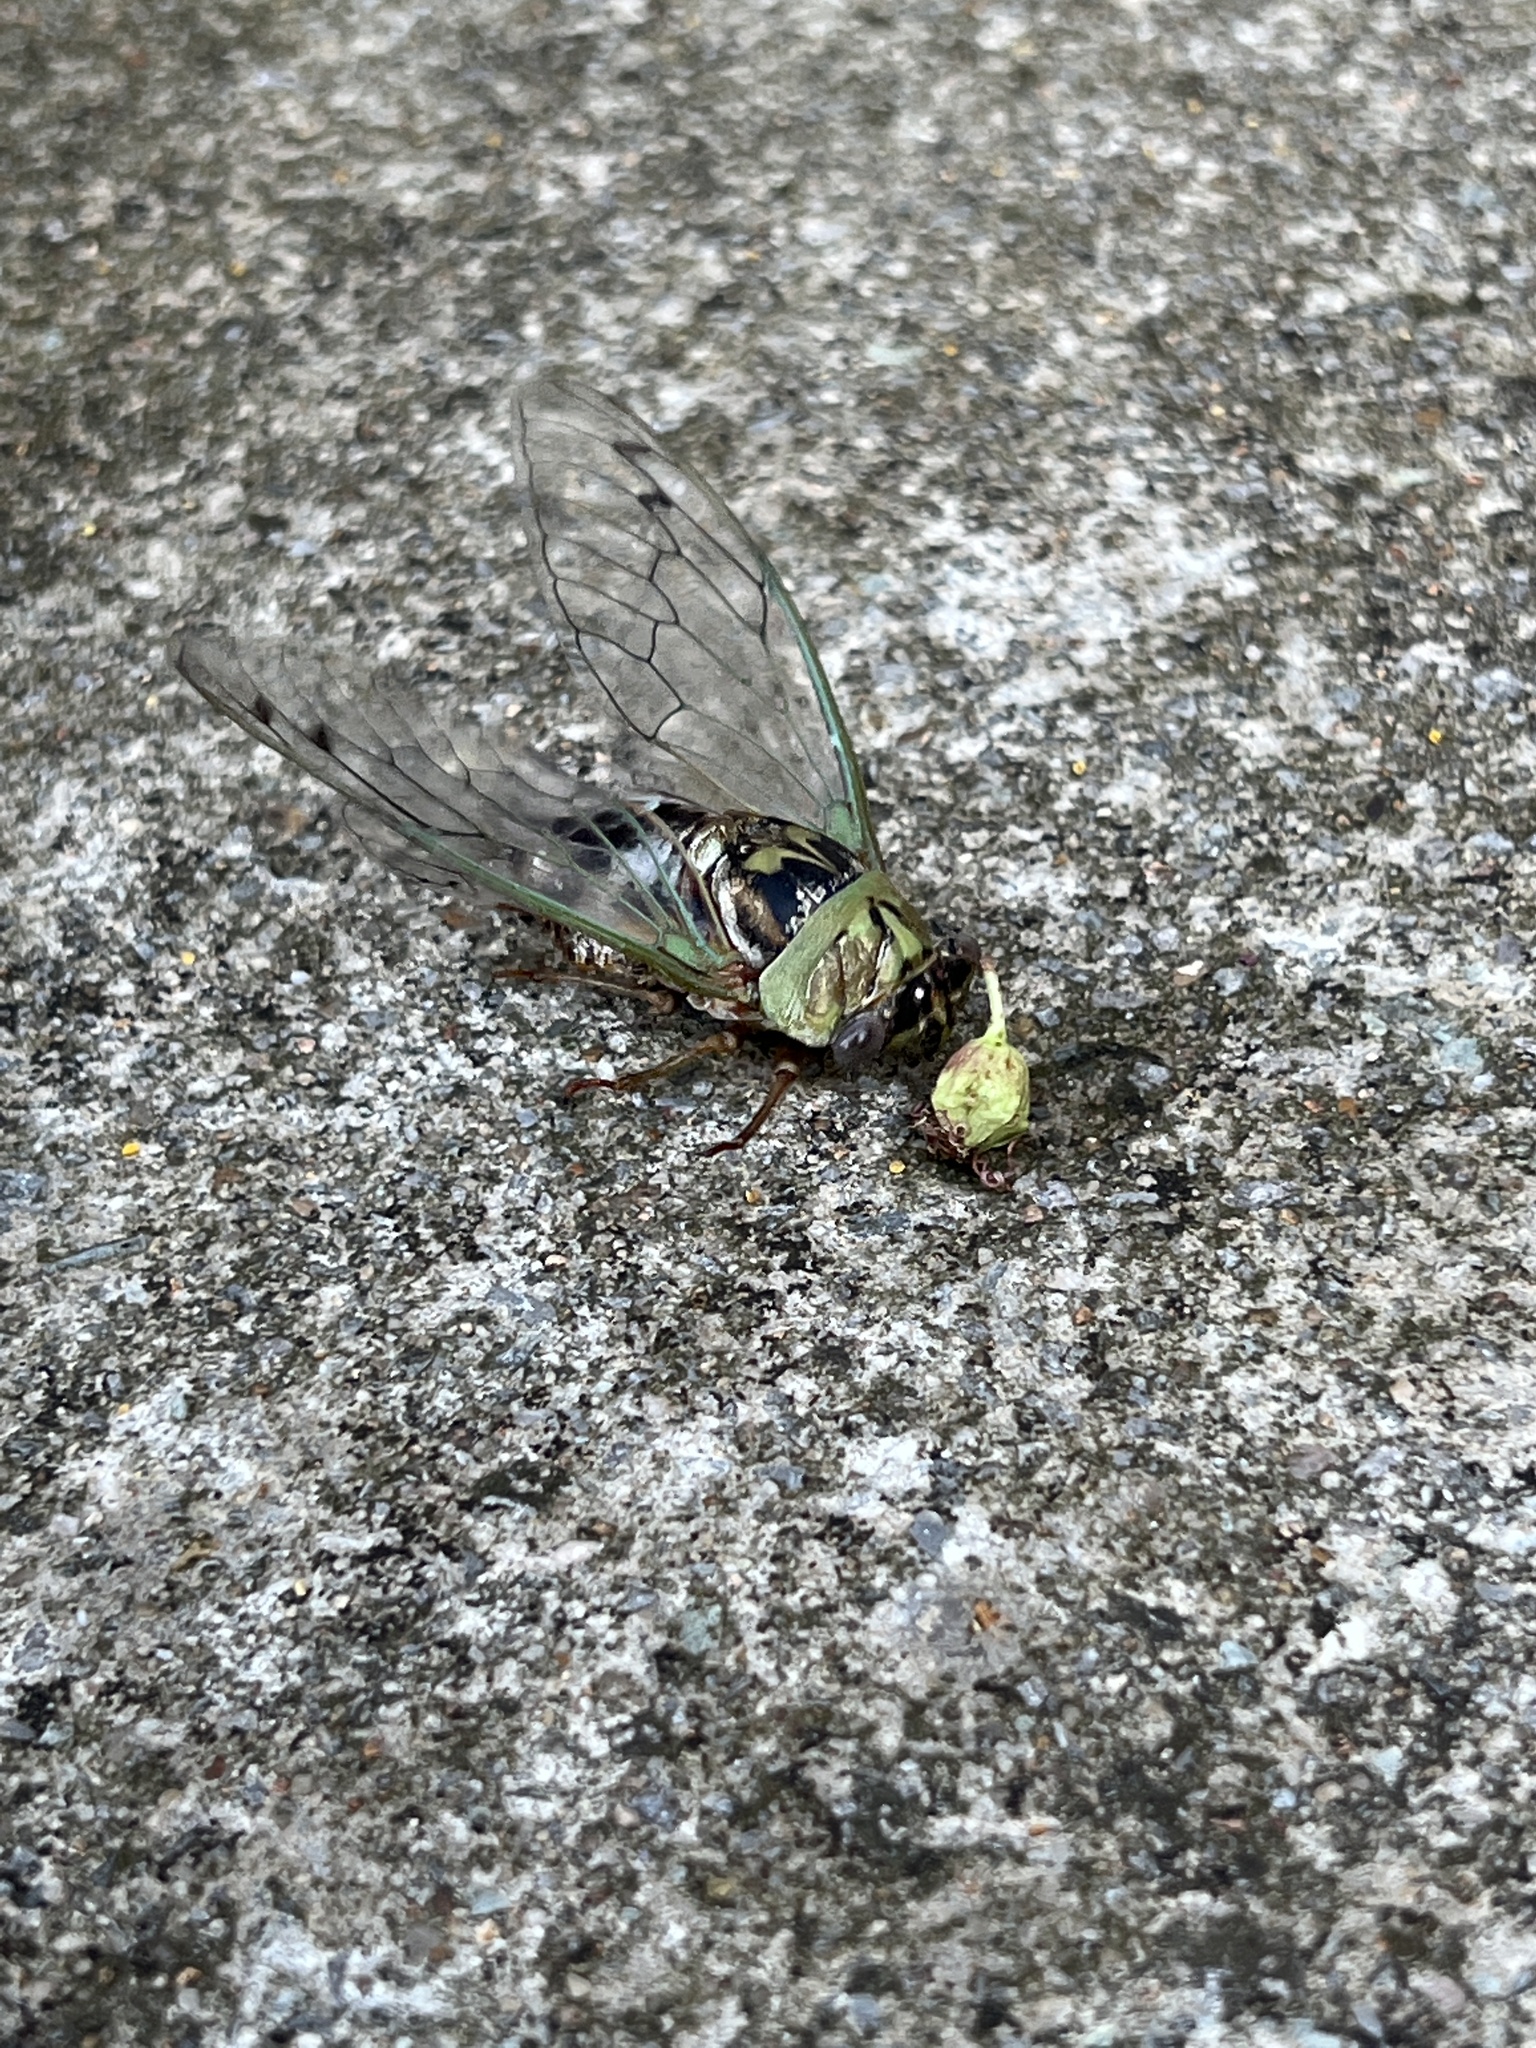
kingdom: Animalia
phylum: Arthropoda
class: Insecta
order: Hemiptera
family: Cicadidae
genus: Megatibicen
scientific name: Megatibicen resh
